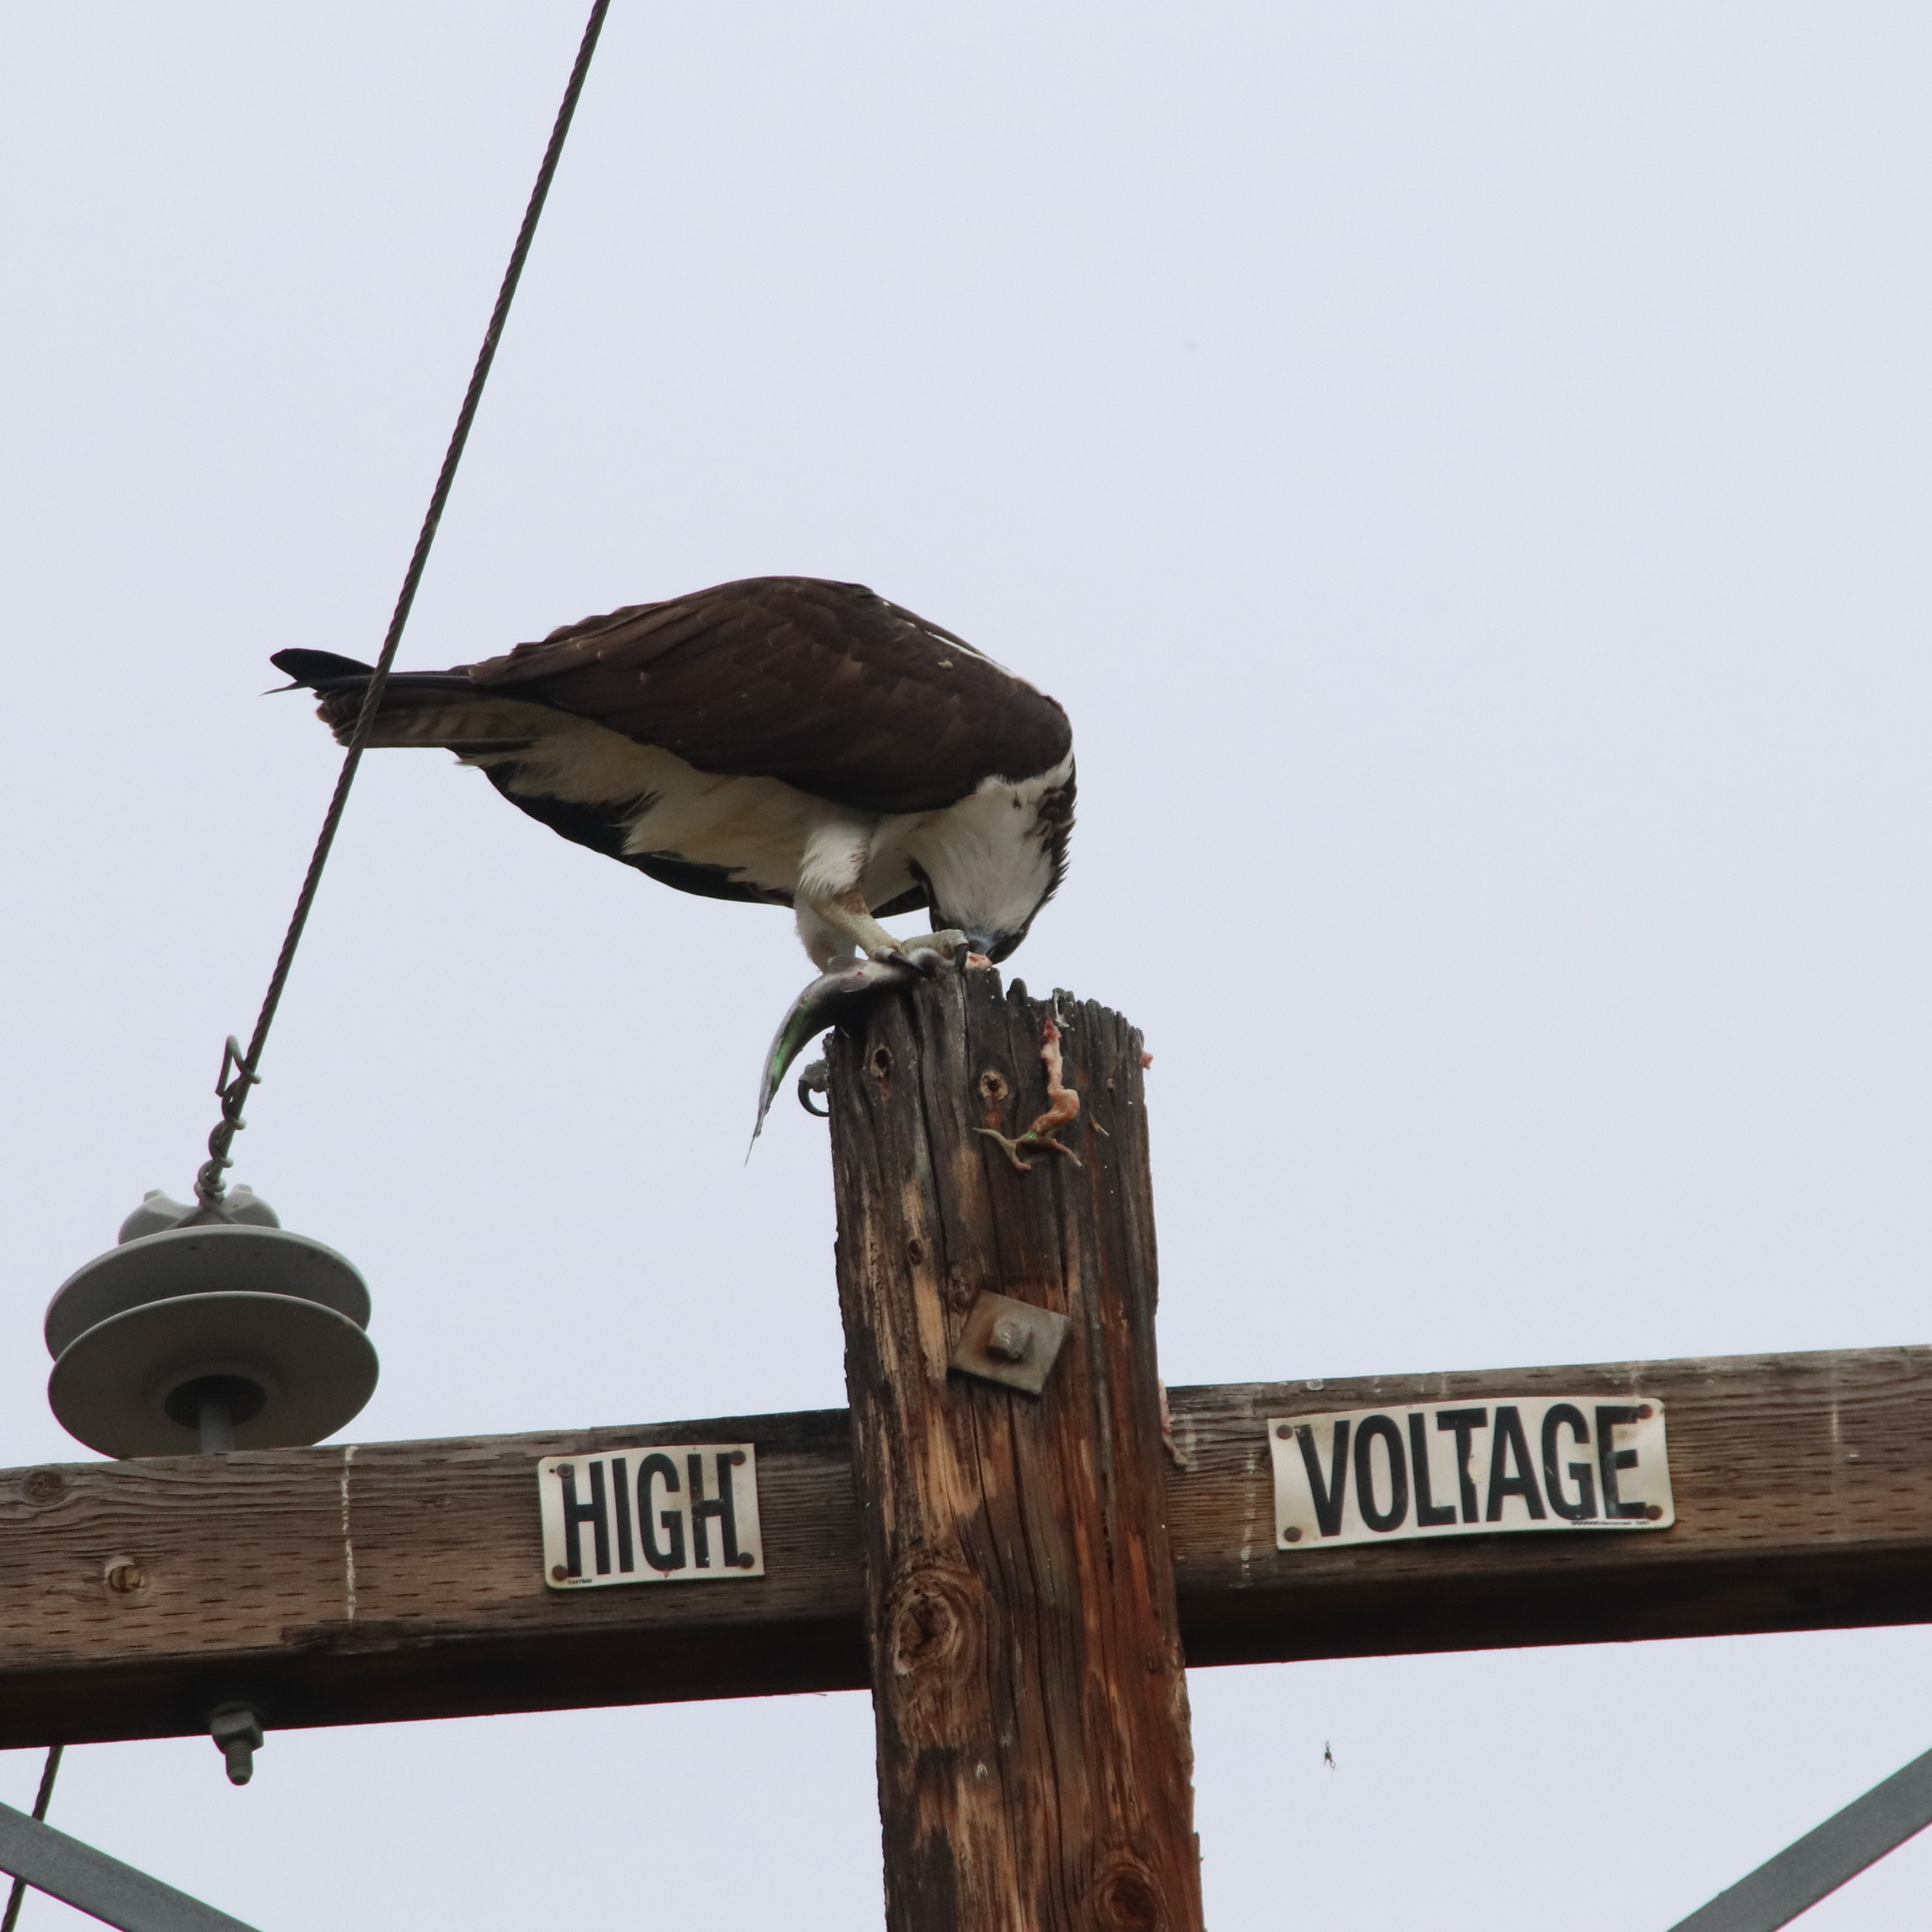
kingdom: Animalia
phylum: Chordata
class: Aves
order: Accipitriformes
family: Pandionidae
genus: Pandion
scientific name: Pandion haliaetus
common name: Osprey
